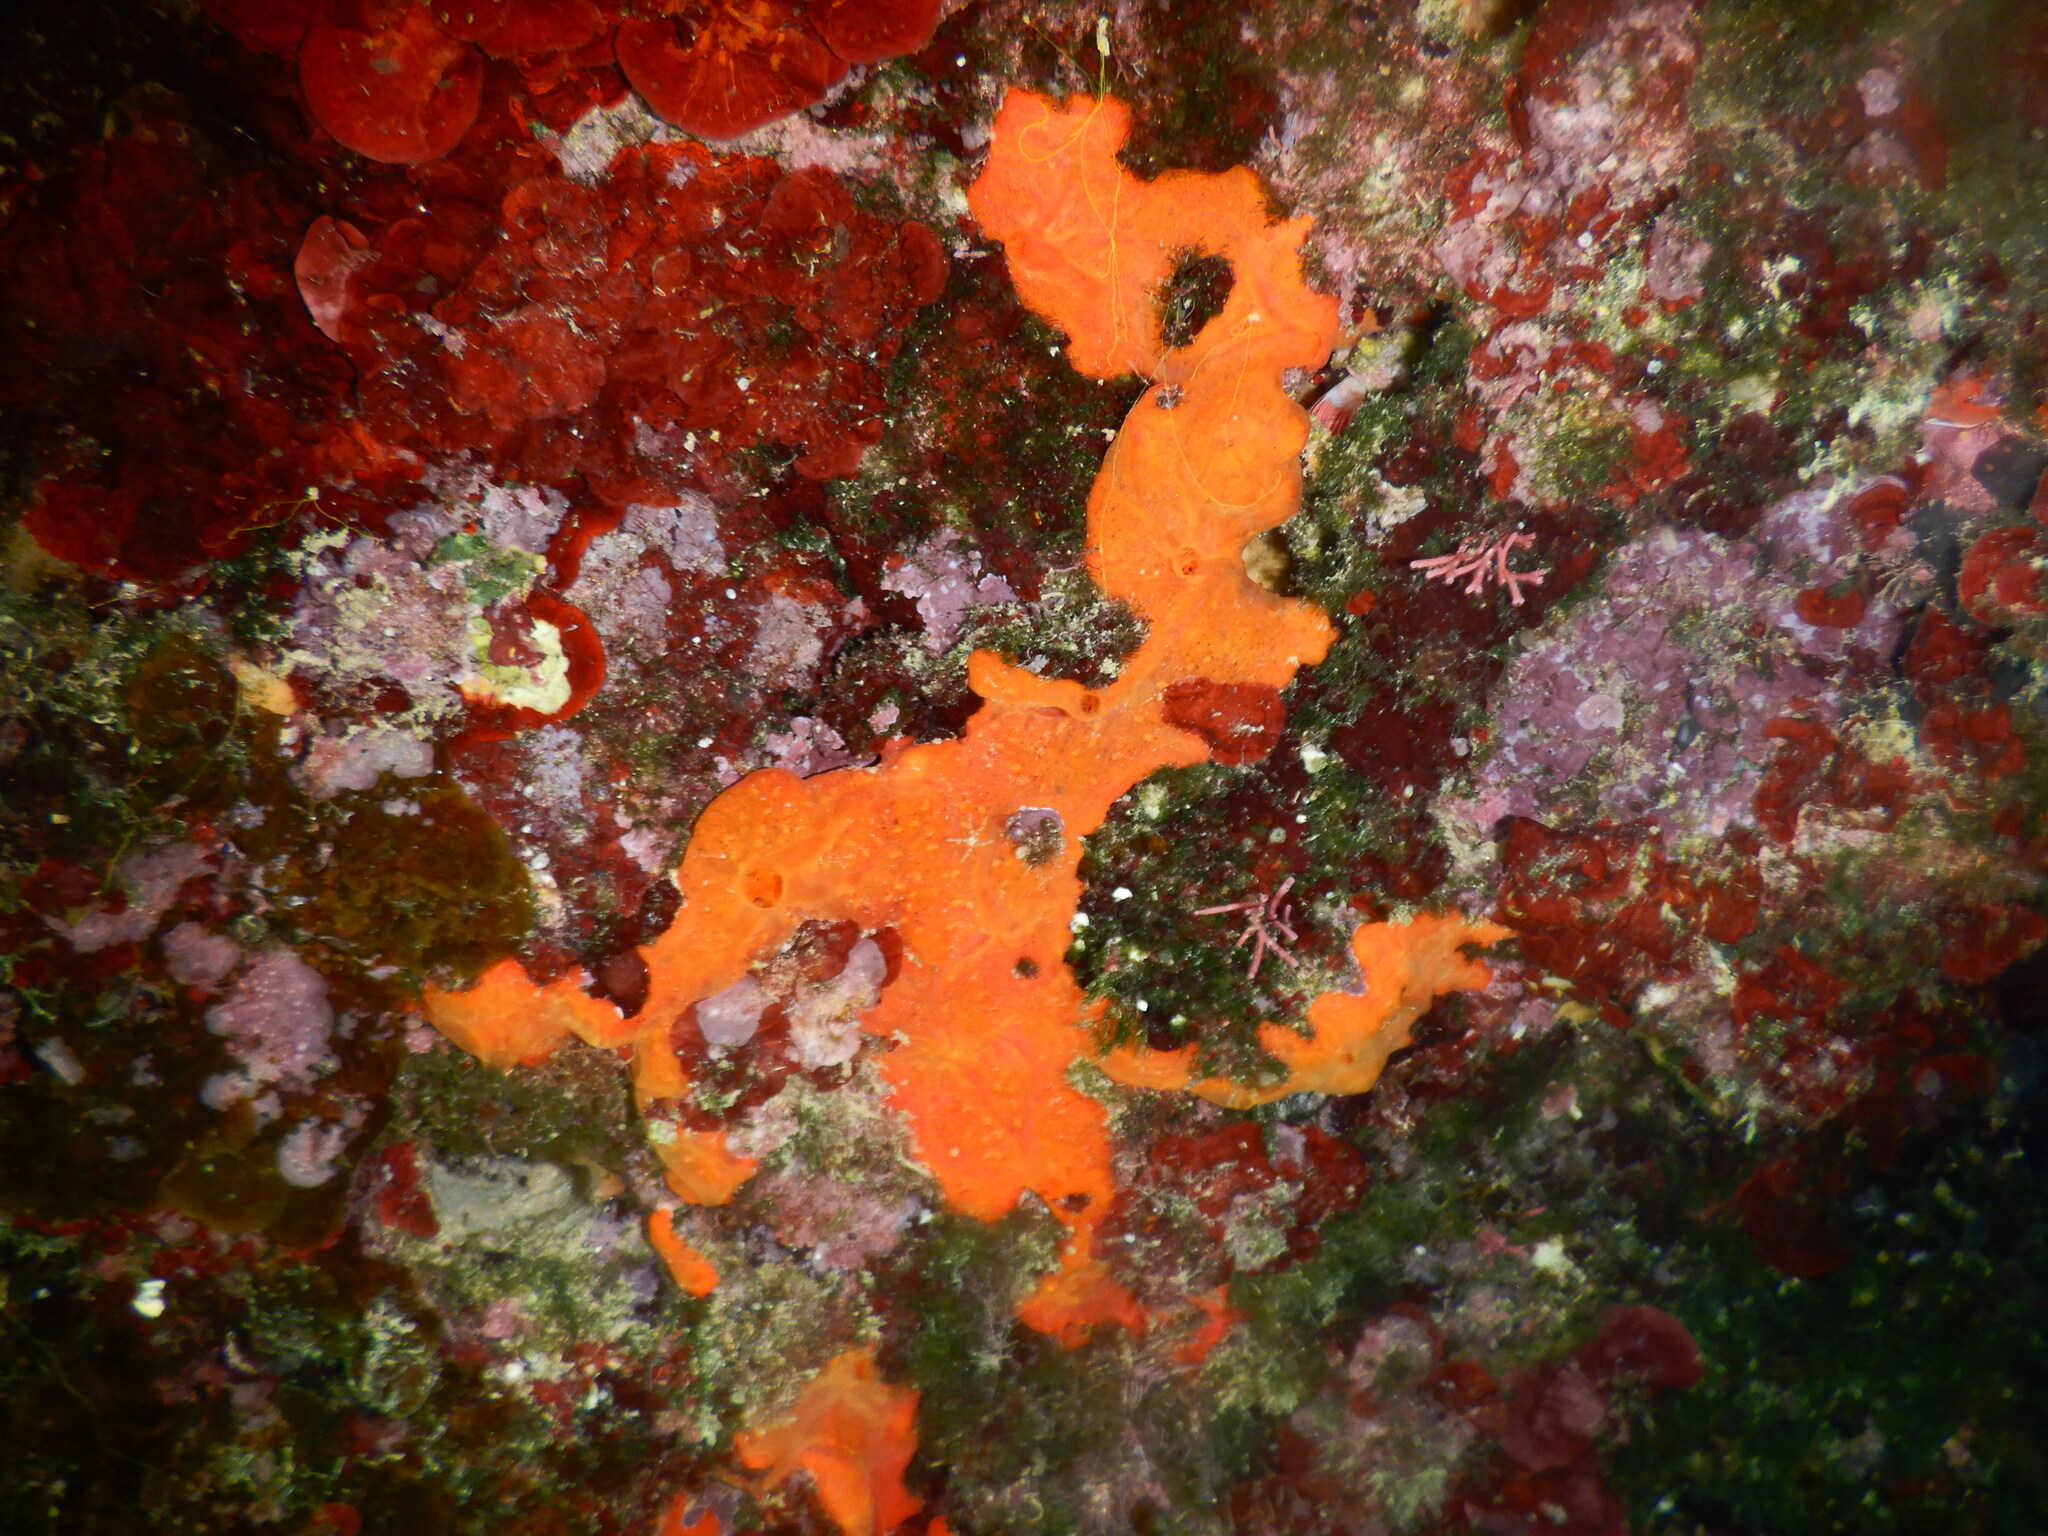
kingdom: Animalia
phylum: Porifera
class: Demospongiae
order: Poecilosclerida
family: Crambeidae
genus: Crambe
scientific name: Crambe crambe
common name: Orange-red encrusting sponge
